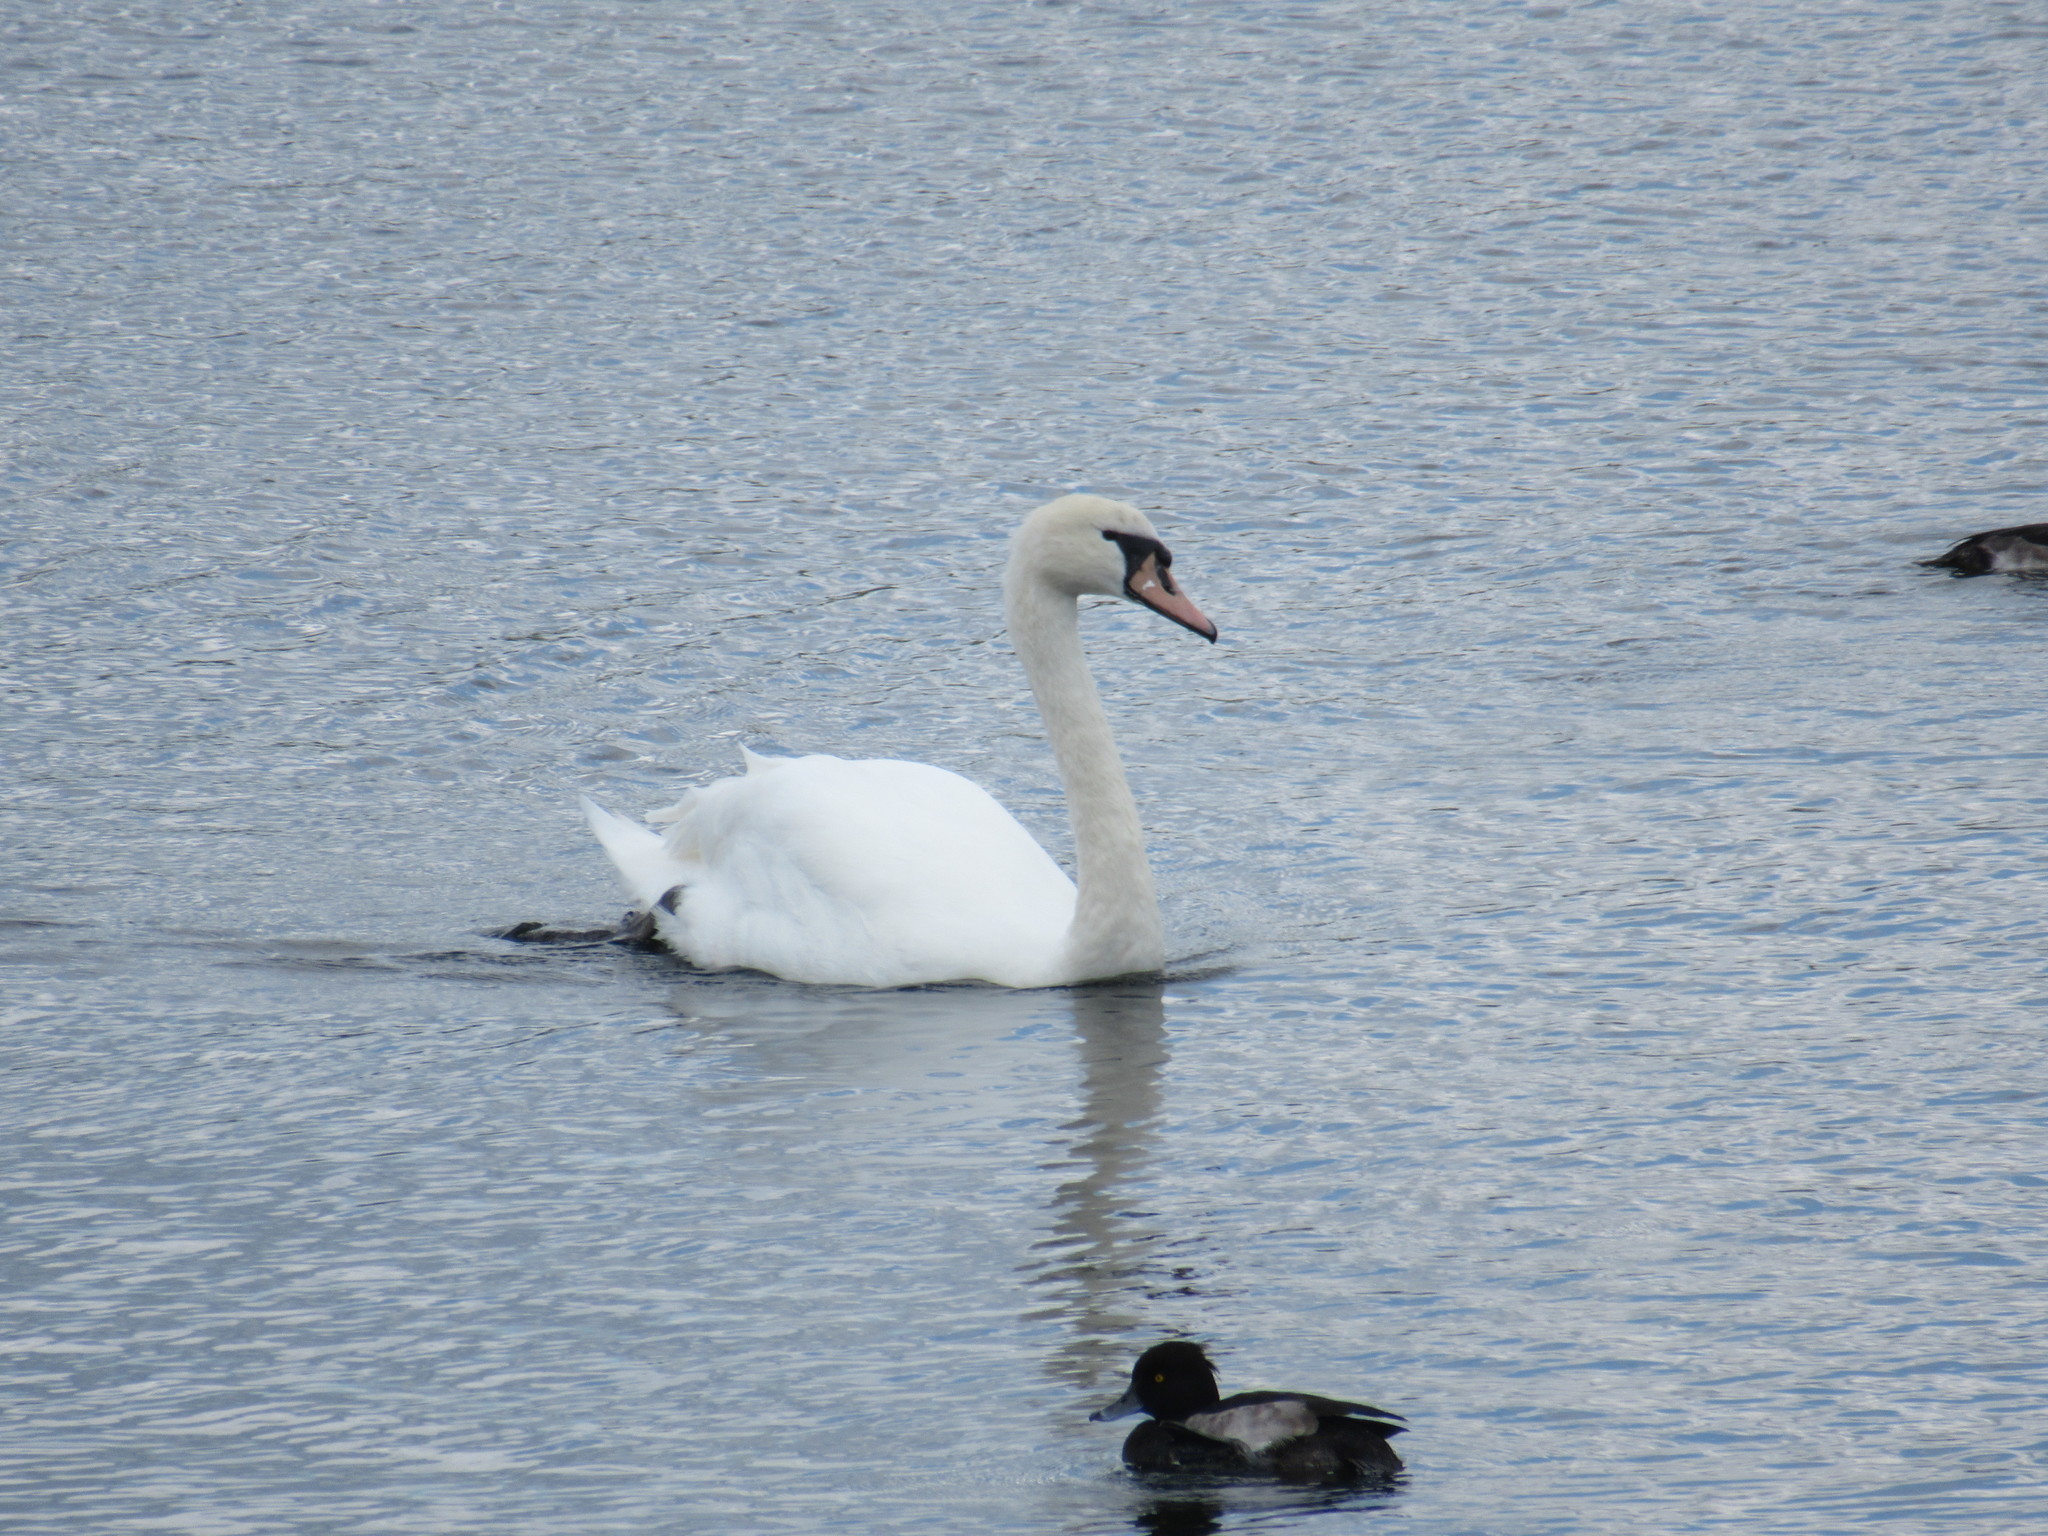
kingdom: Animalia
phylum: Chordata
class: Aves
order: Anseriformes
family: Anatidae
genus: Cygnus
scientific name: Cygnus olor
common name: Mute swan
